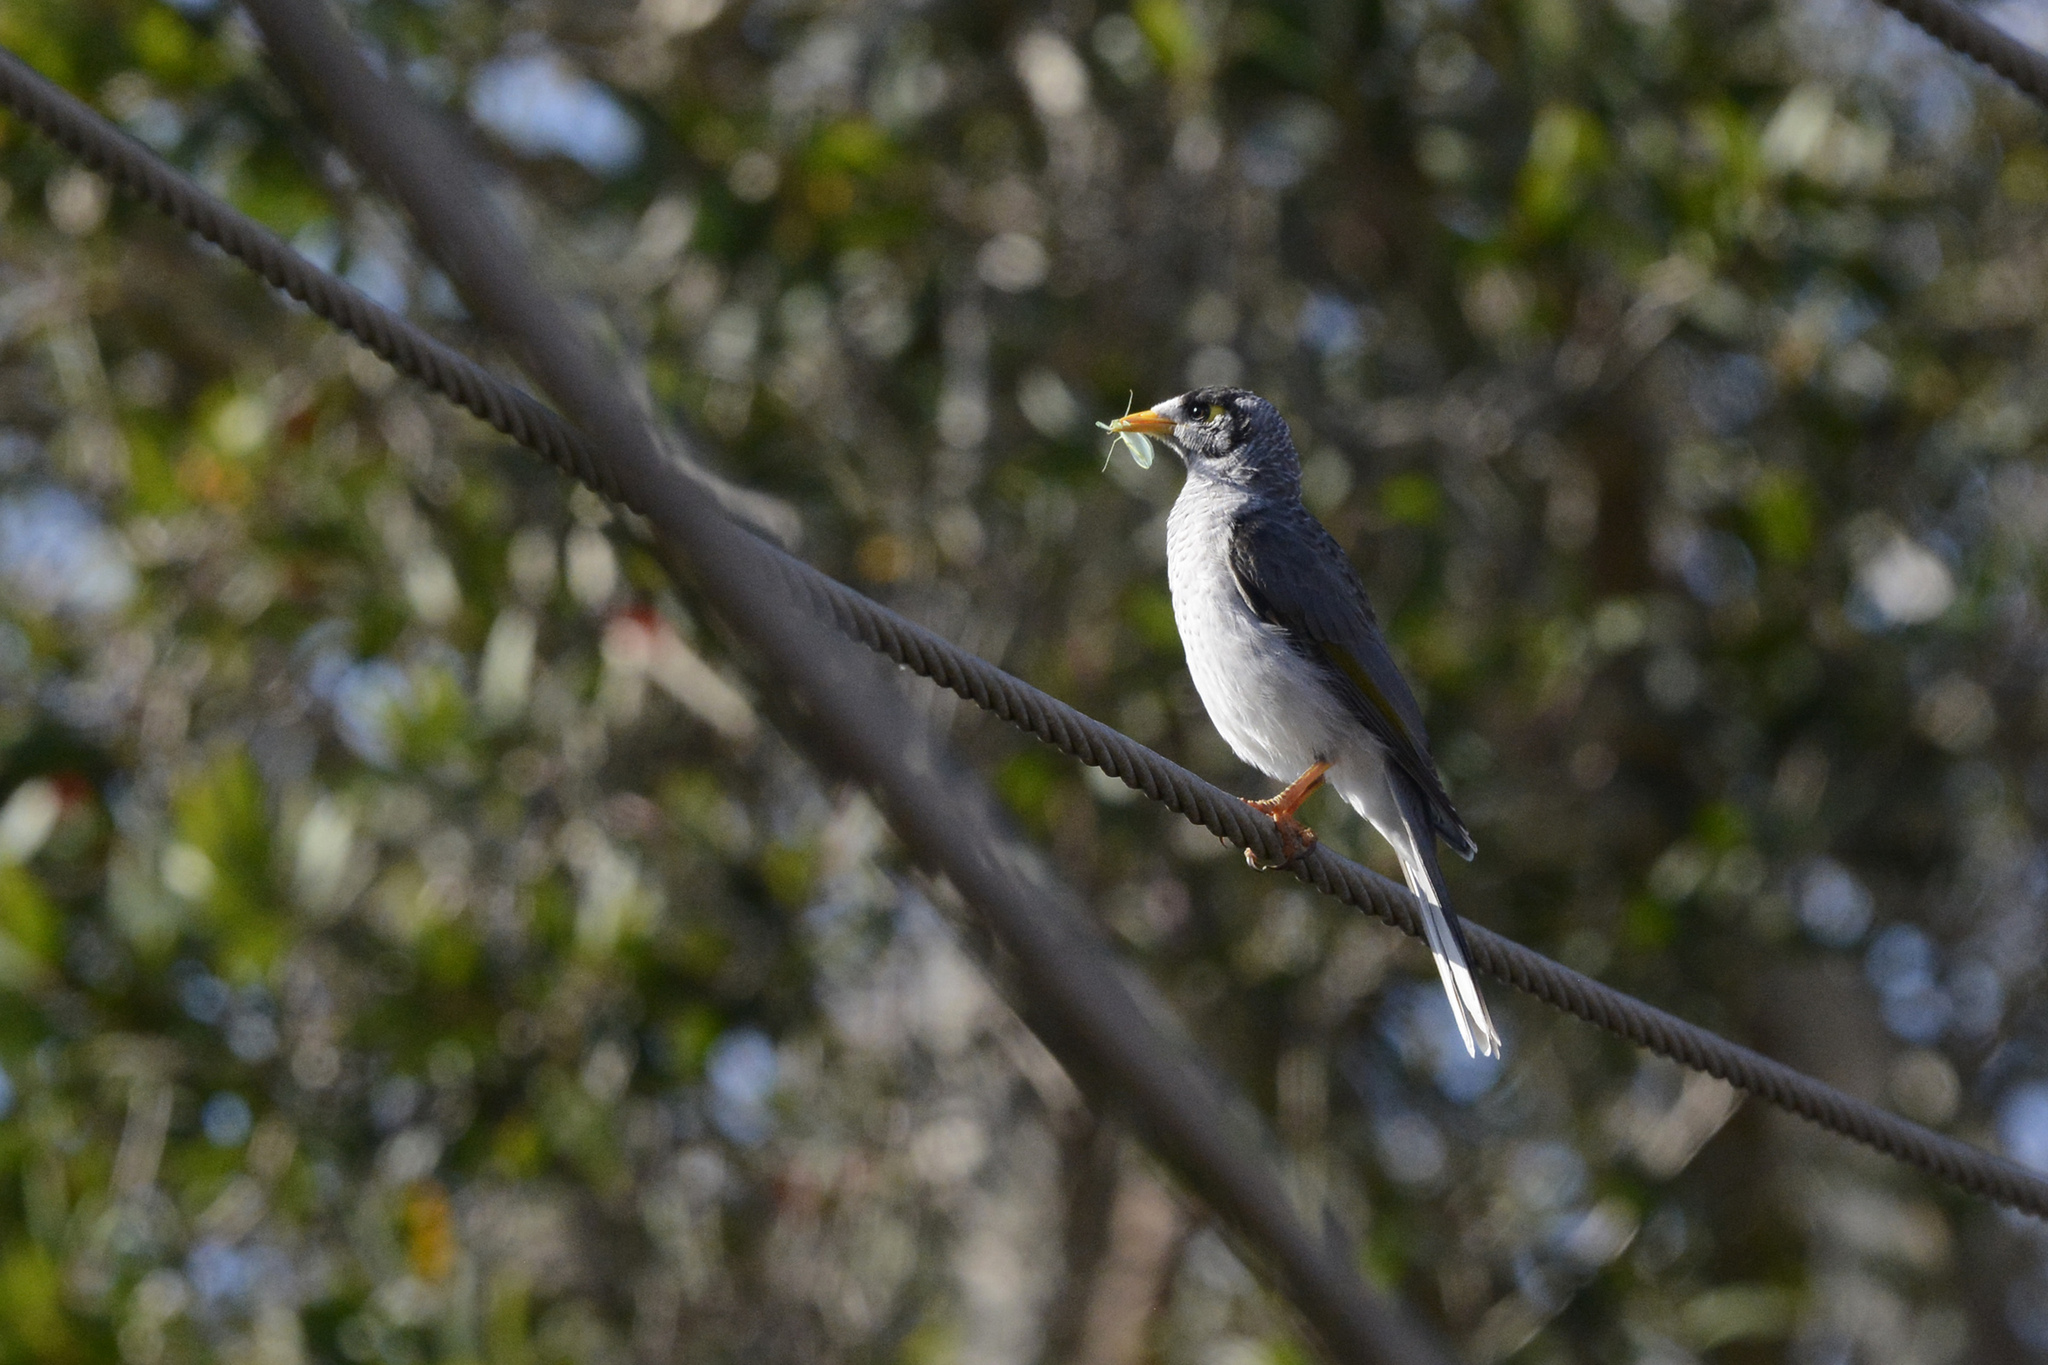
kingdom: Animalia
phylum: Chordata
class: Aves
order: Passeriformes
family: Meliphagidae
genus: Manorina
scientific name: Manorina melanocephala
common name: Noisy miner
